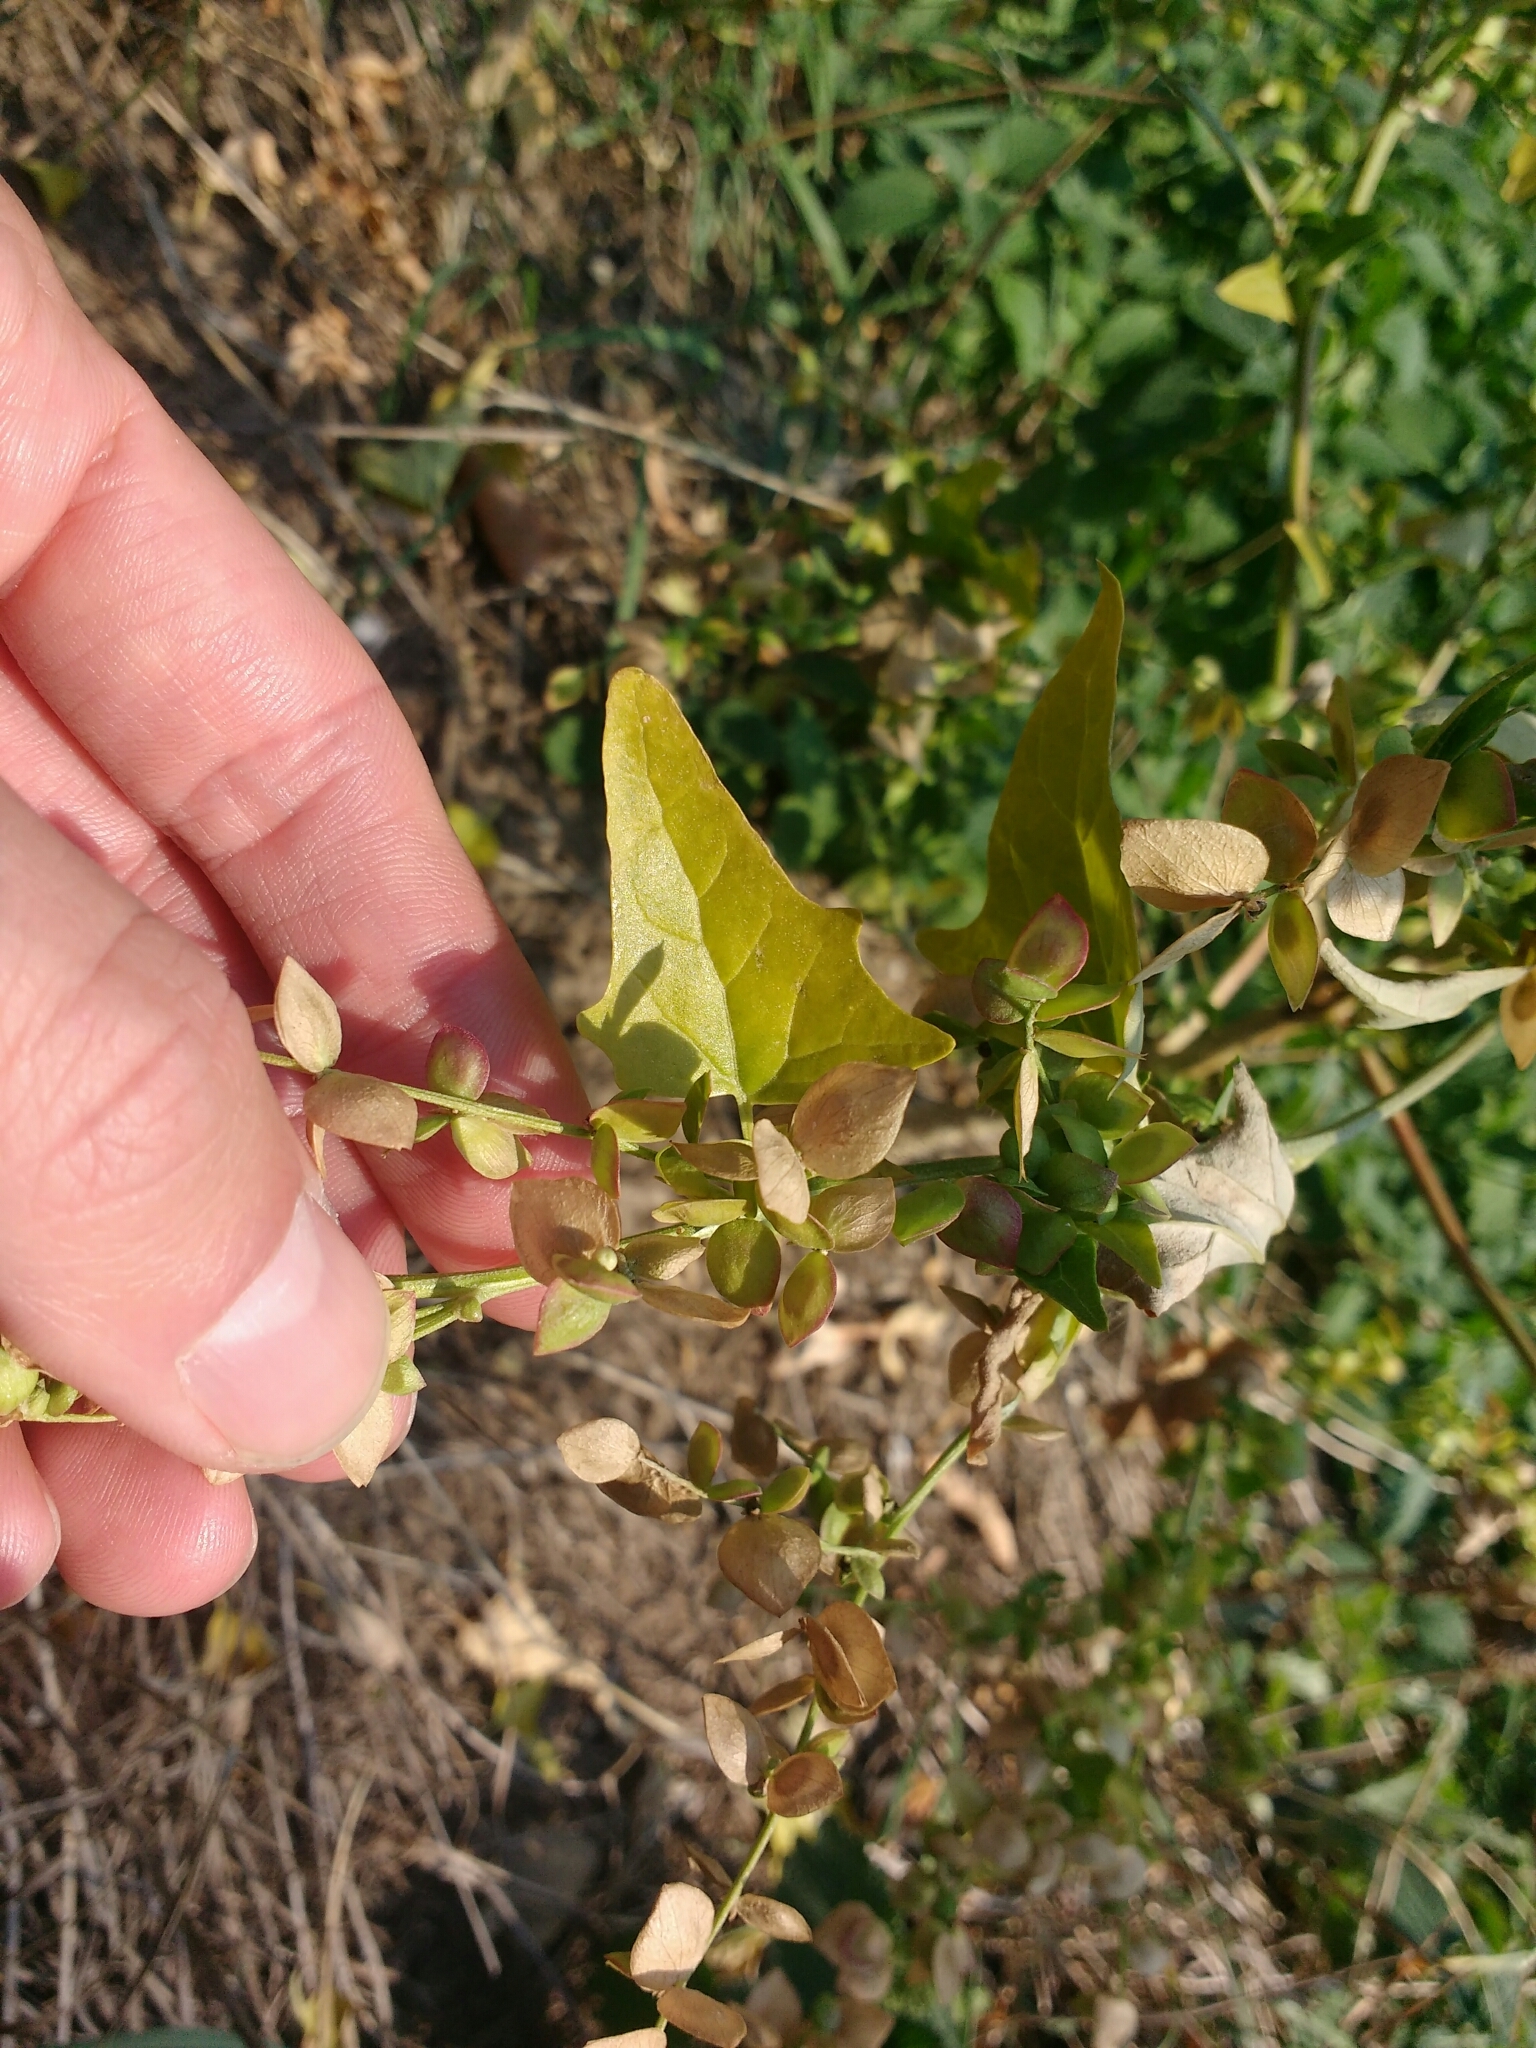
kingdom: Plantae
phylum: Tracheophyta
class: Magnoliopsida
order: Caryophyllales
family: Amaranthaceae
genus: Atriplex
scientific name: Atriplex sagittata
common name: Purple orache
